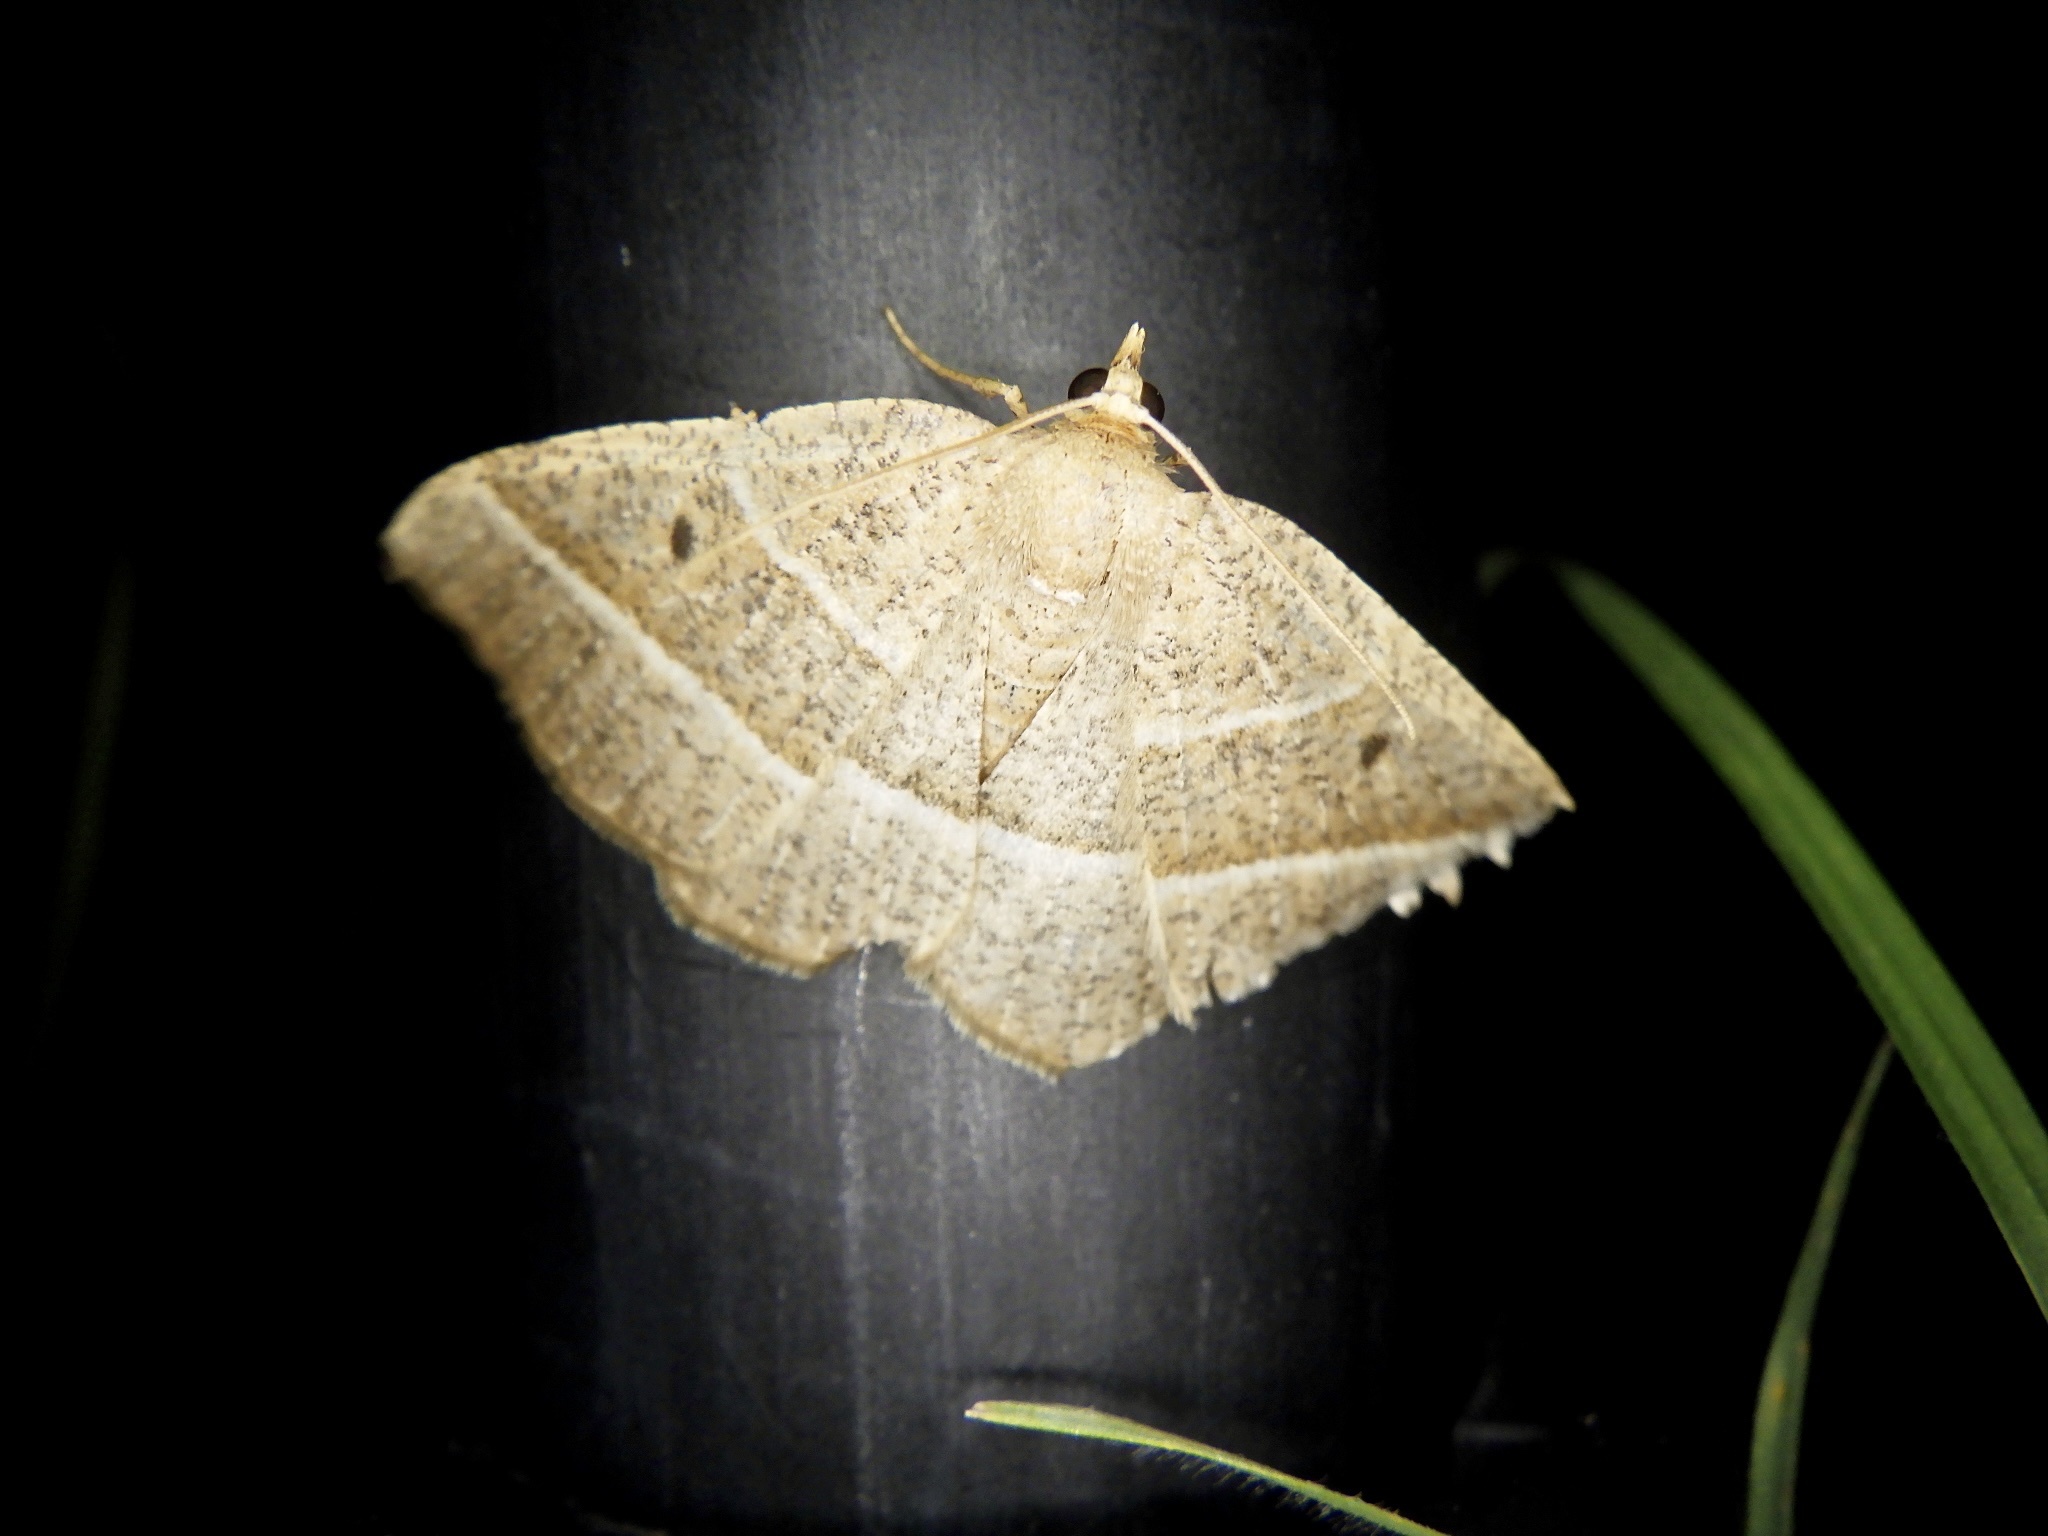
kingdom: Animalia
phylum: Arthropoda
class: Insecta
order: Lepidoptera
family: Geometridae
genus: Rhynchobapta
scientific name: Rhynchobapta cervinaria
